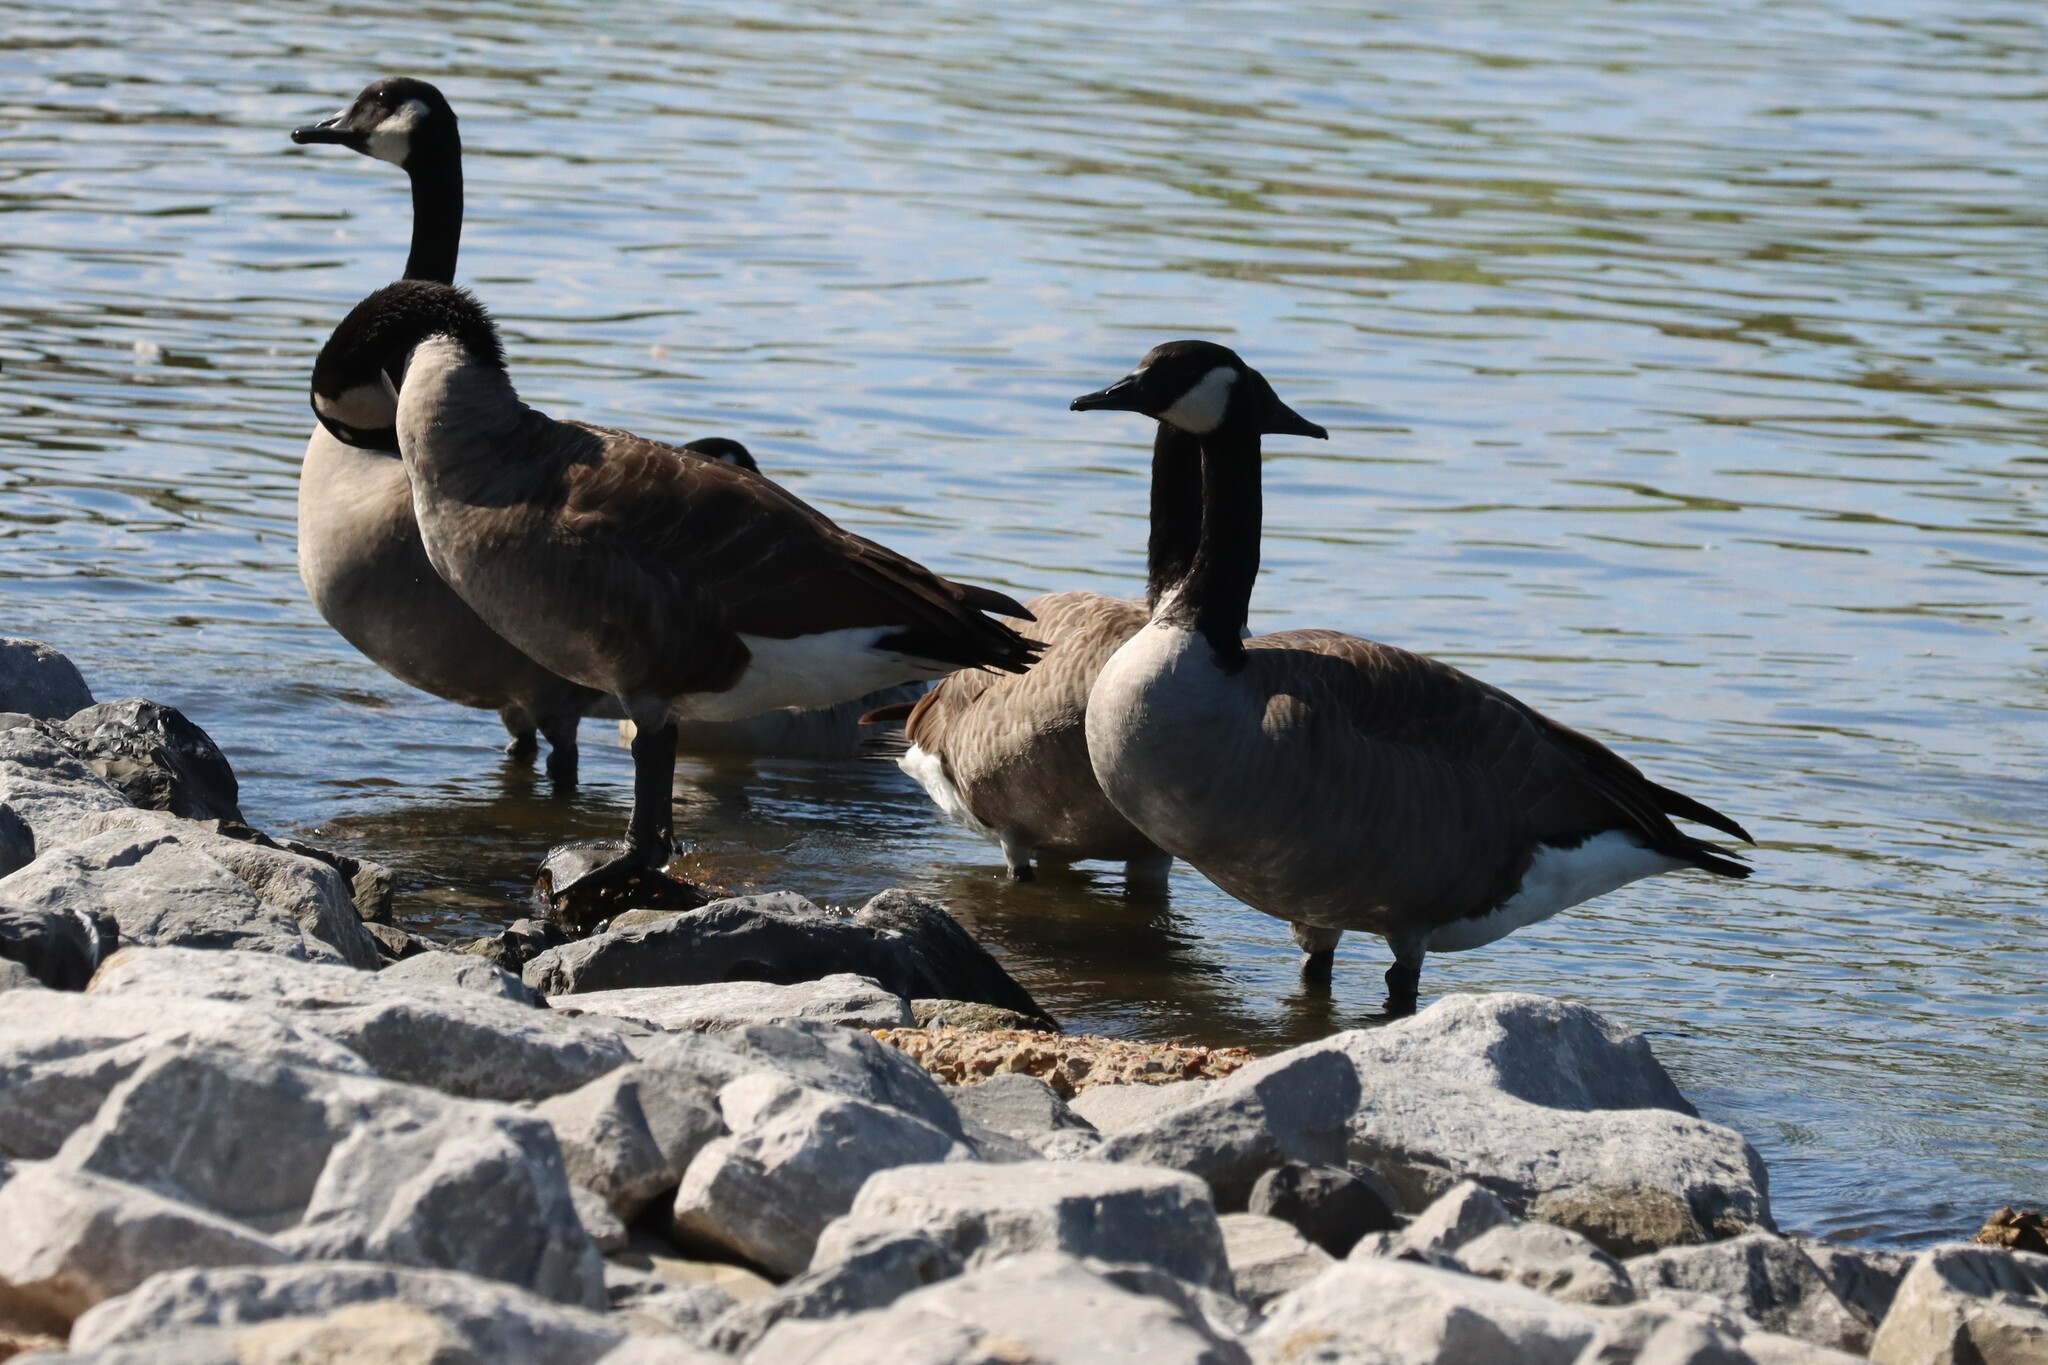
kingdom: Animalia
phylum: Chordata
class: Aves
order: Anseriformes
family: Anatidae
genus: Branta
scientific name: Branta canadensis
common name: Canada goose
